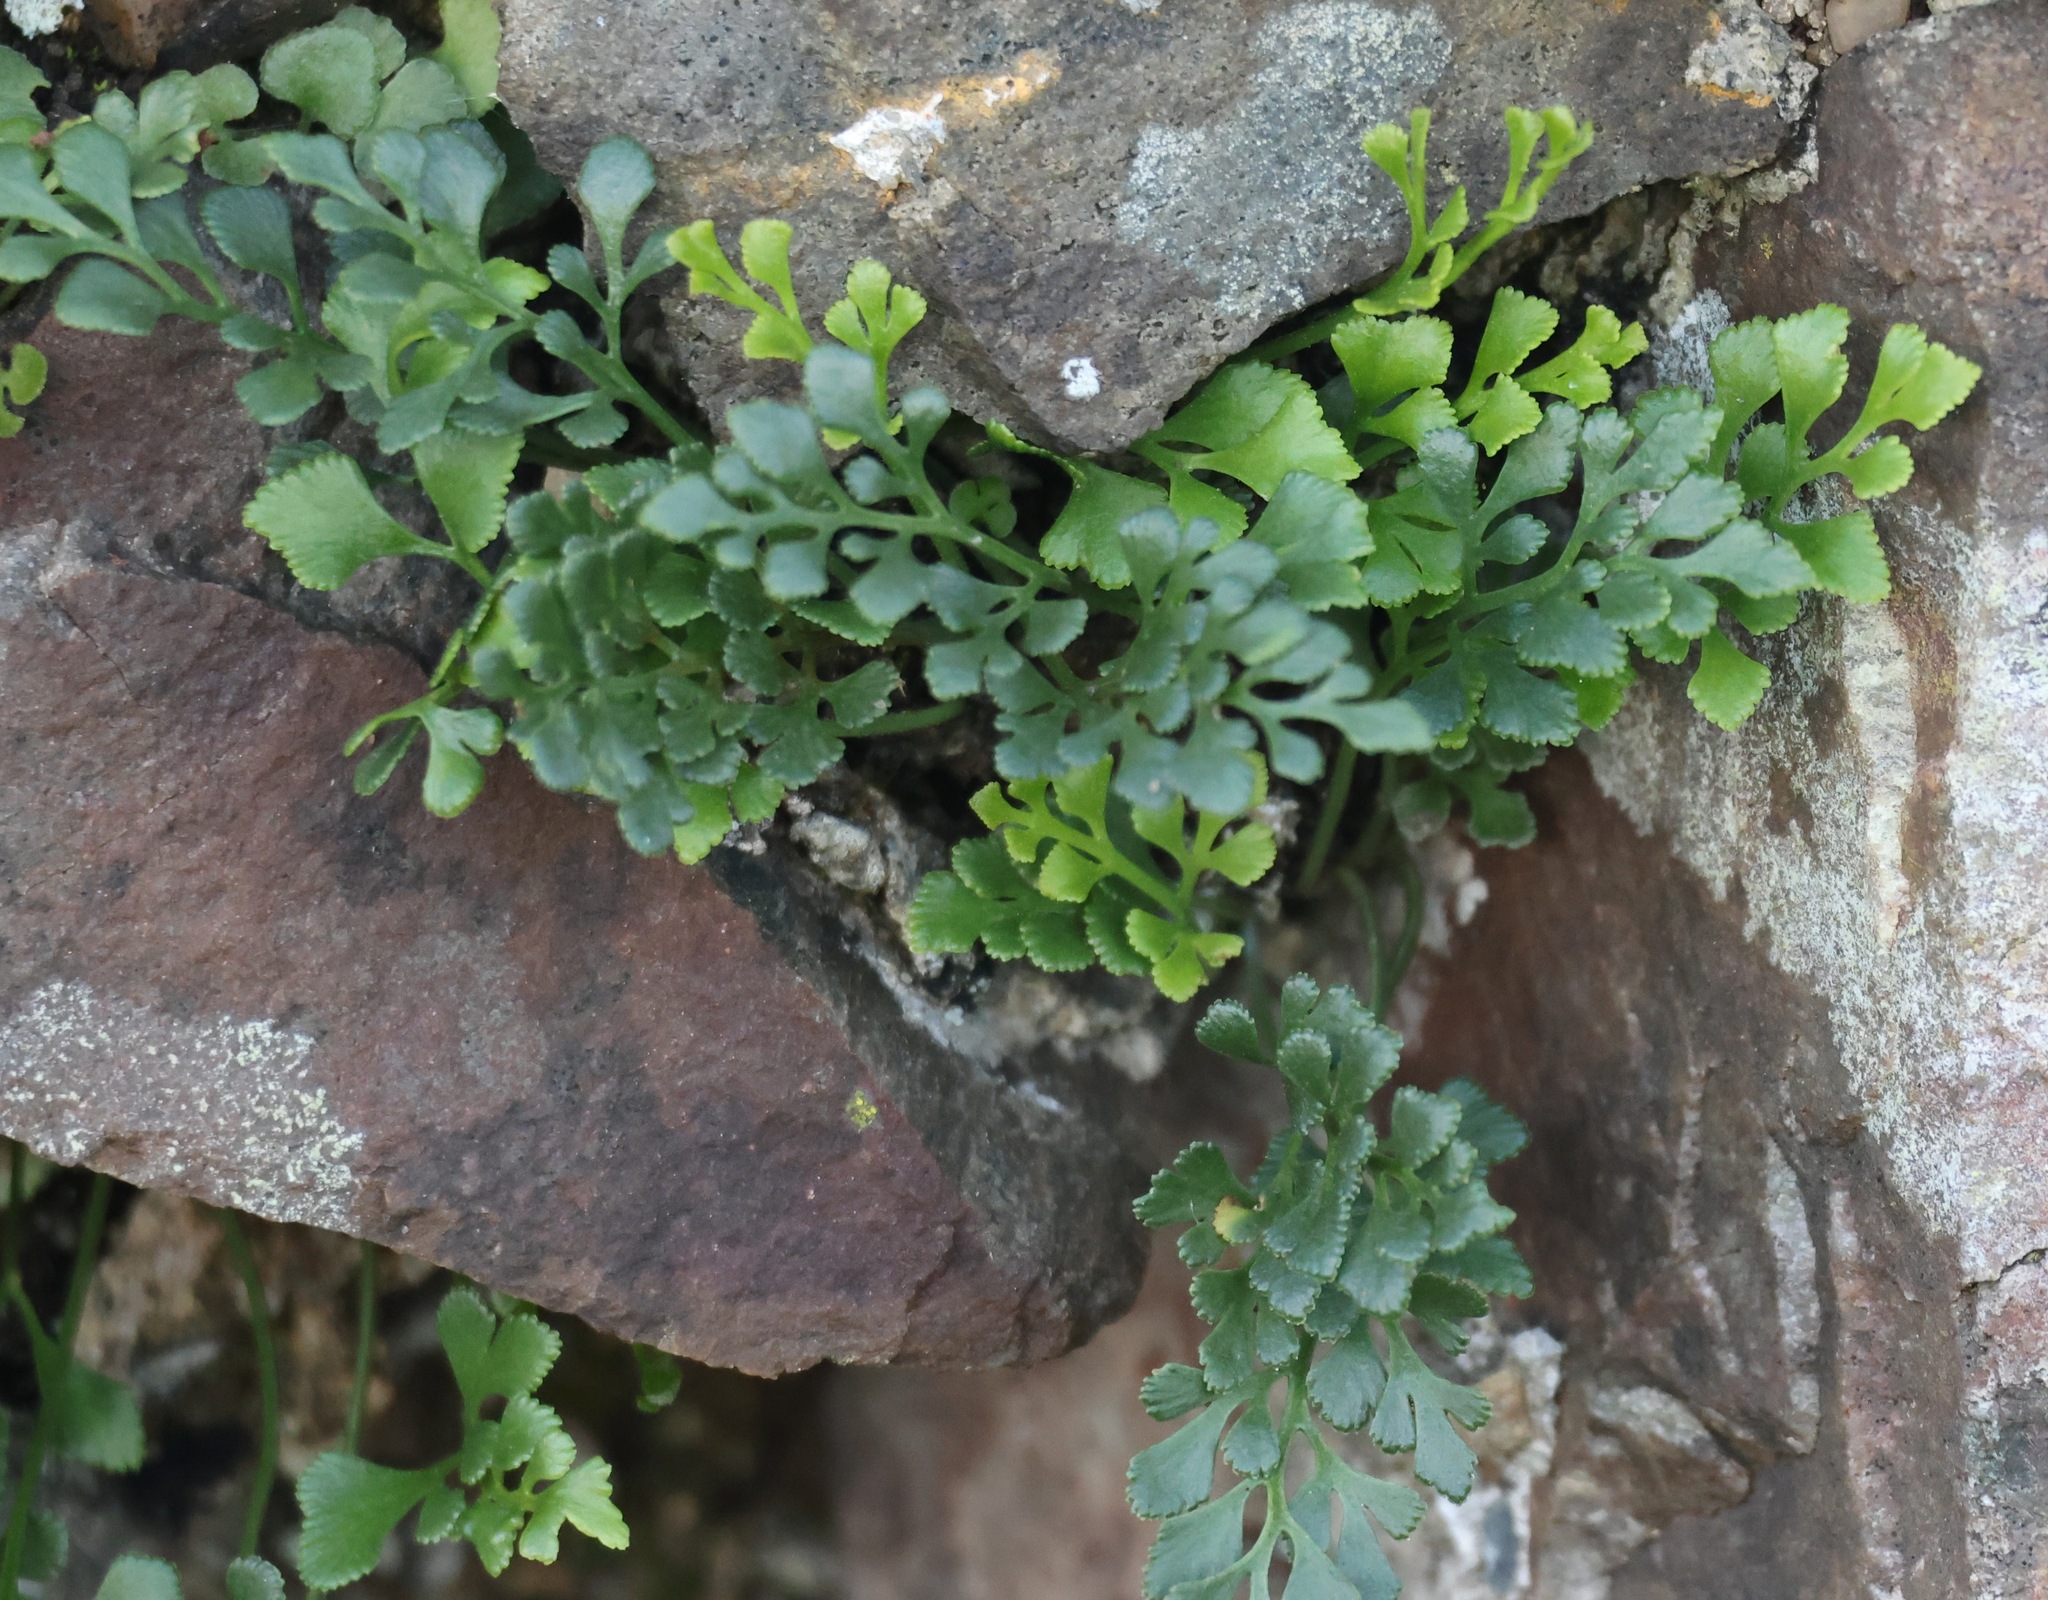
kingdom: Plantae
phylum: Tracheophyta
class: Polypodiopsida
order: Polypodiales
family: Aspleniaceae
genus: Asplenium
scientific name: Asplenium ruta-muraria
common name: Wall-rue
